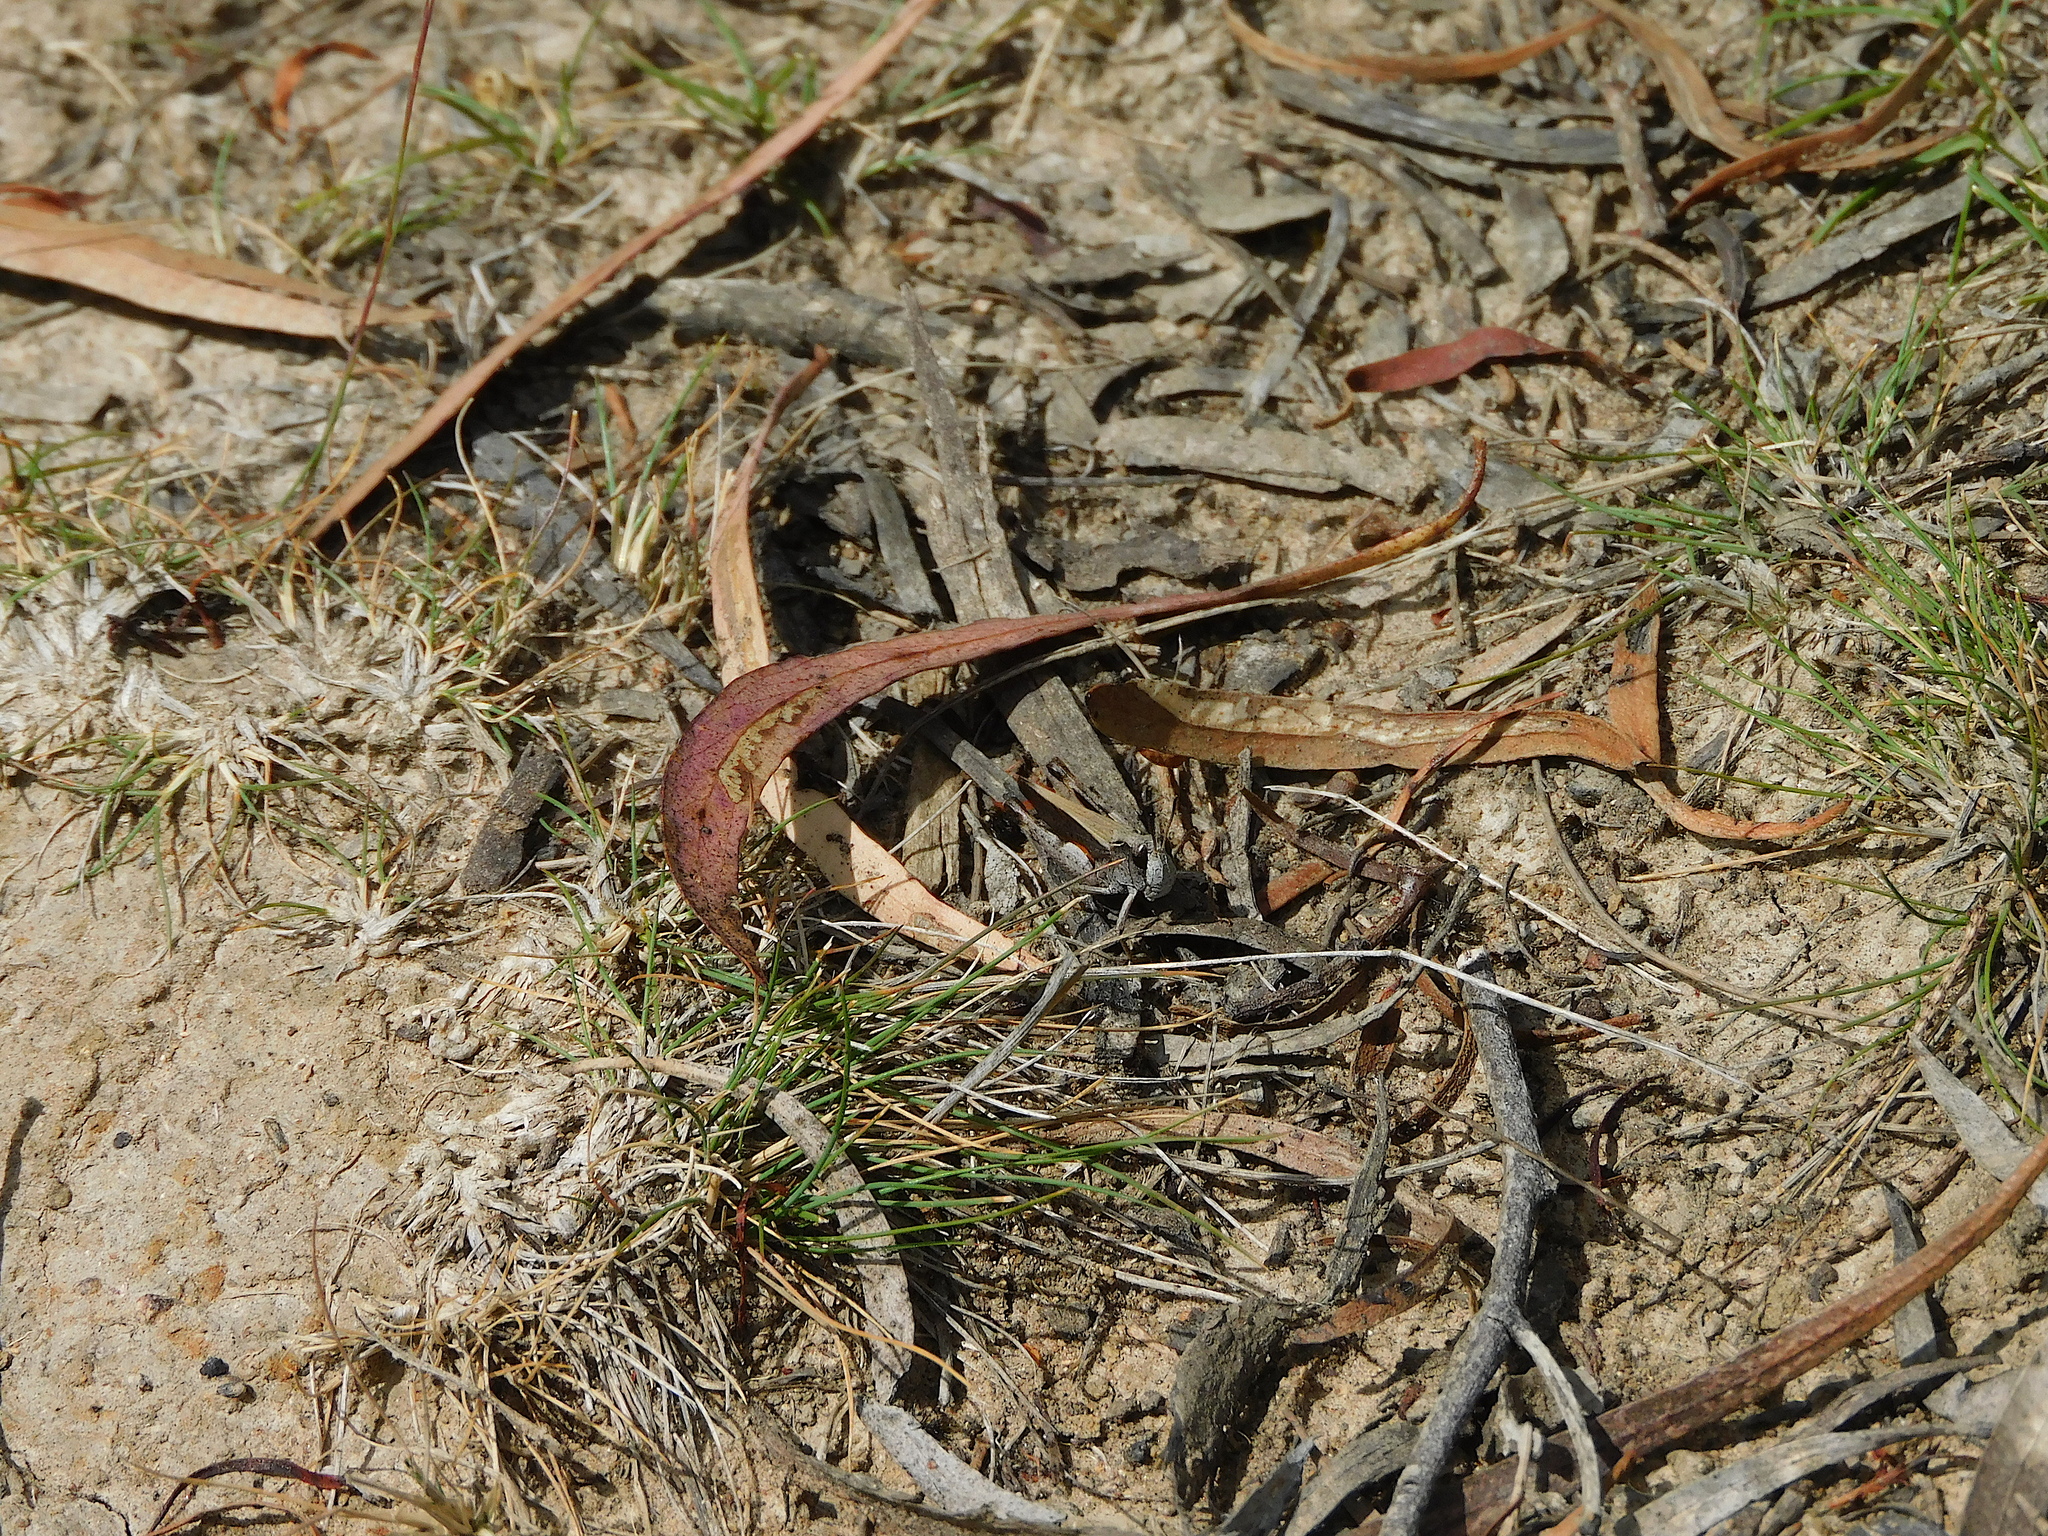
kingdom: Animalia
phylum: Arthropoda
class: Insecta
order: Orthoptera
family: Acrididae
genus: Cryptobothrus
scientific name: Cryptobothrus chrysophorus
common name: Golden bandwing
